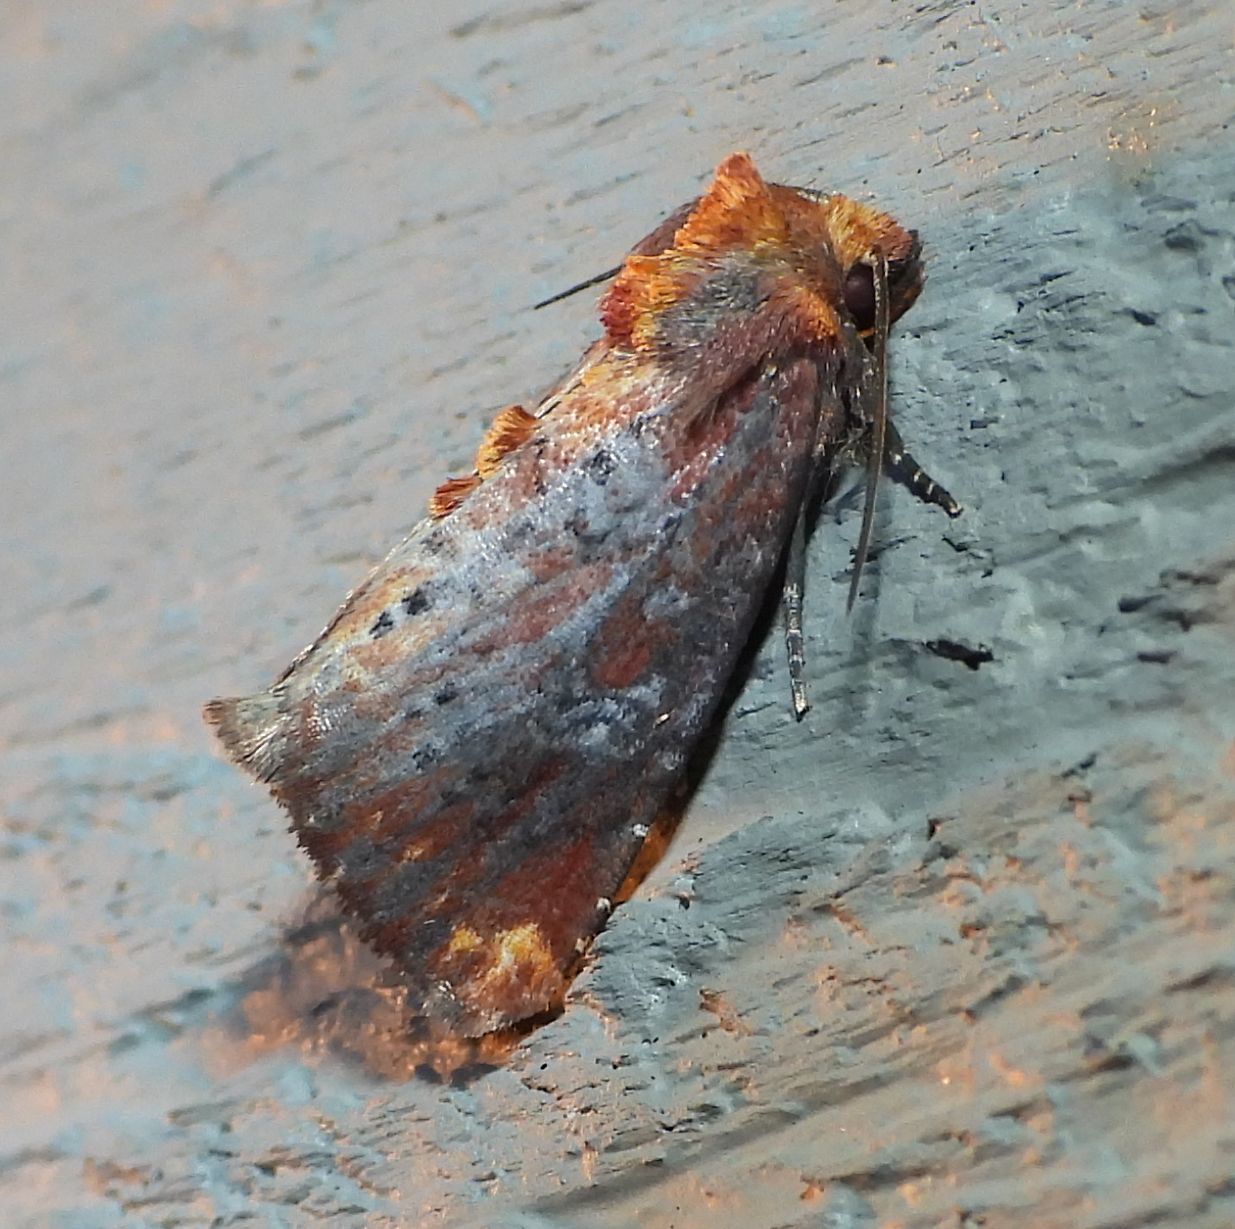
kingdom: Animalia
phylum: Arthropoda
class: Insecta
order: Lepidoptera
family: Noctuidae
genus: Achatodes
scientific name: Achatodes zeae
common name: Elder shoot borer
